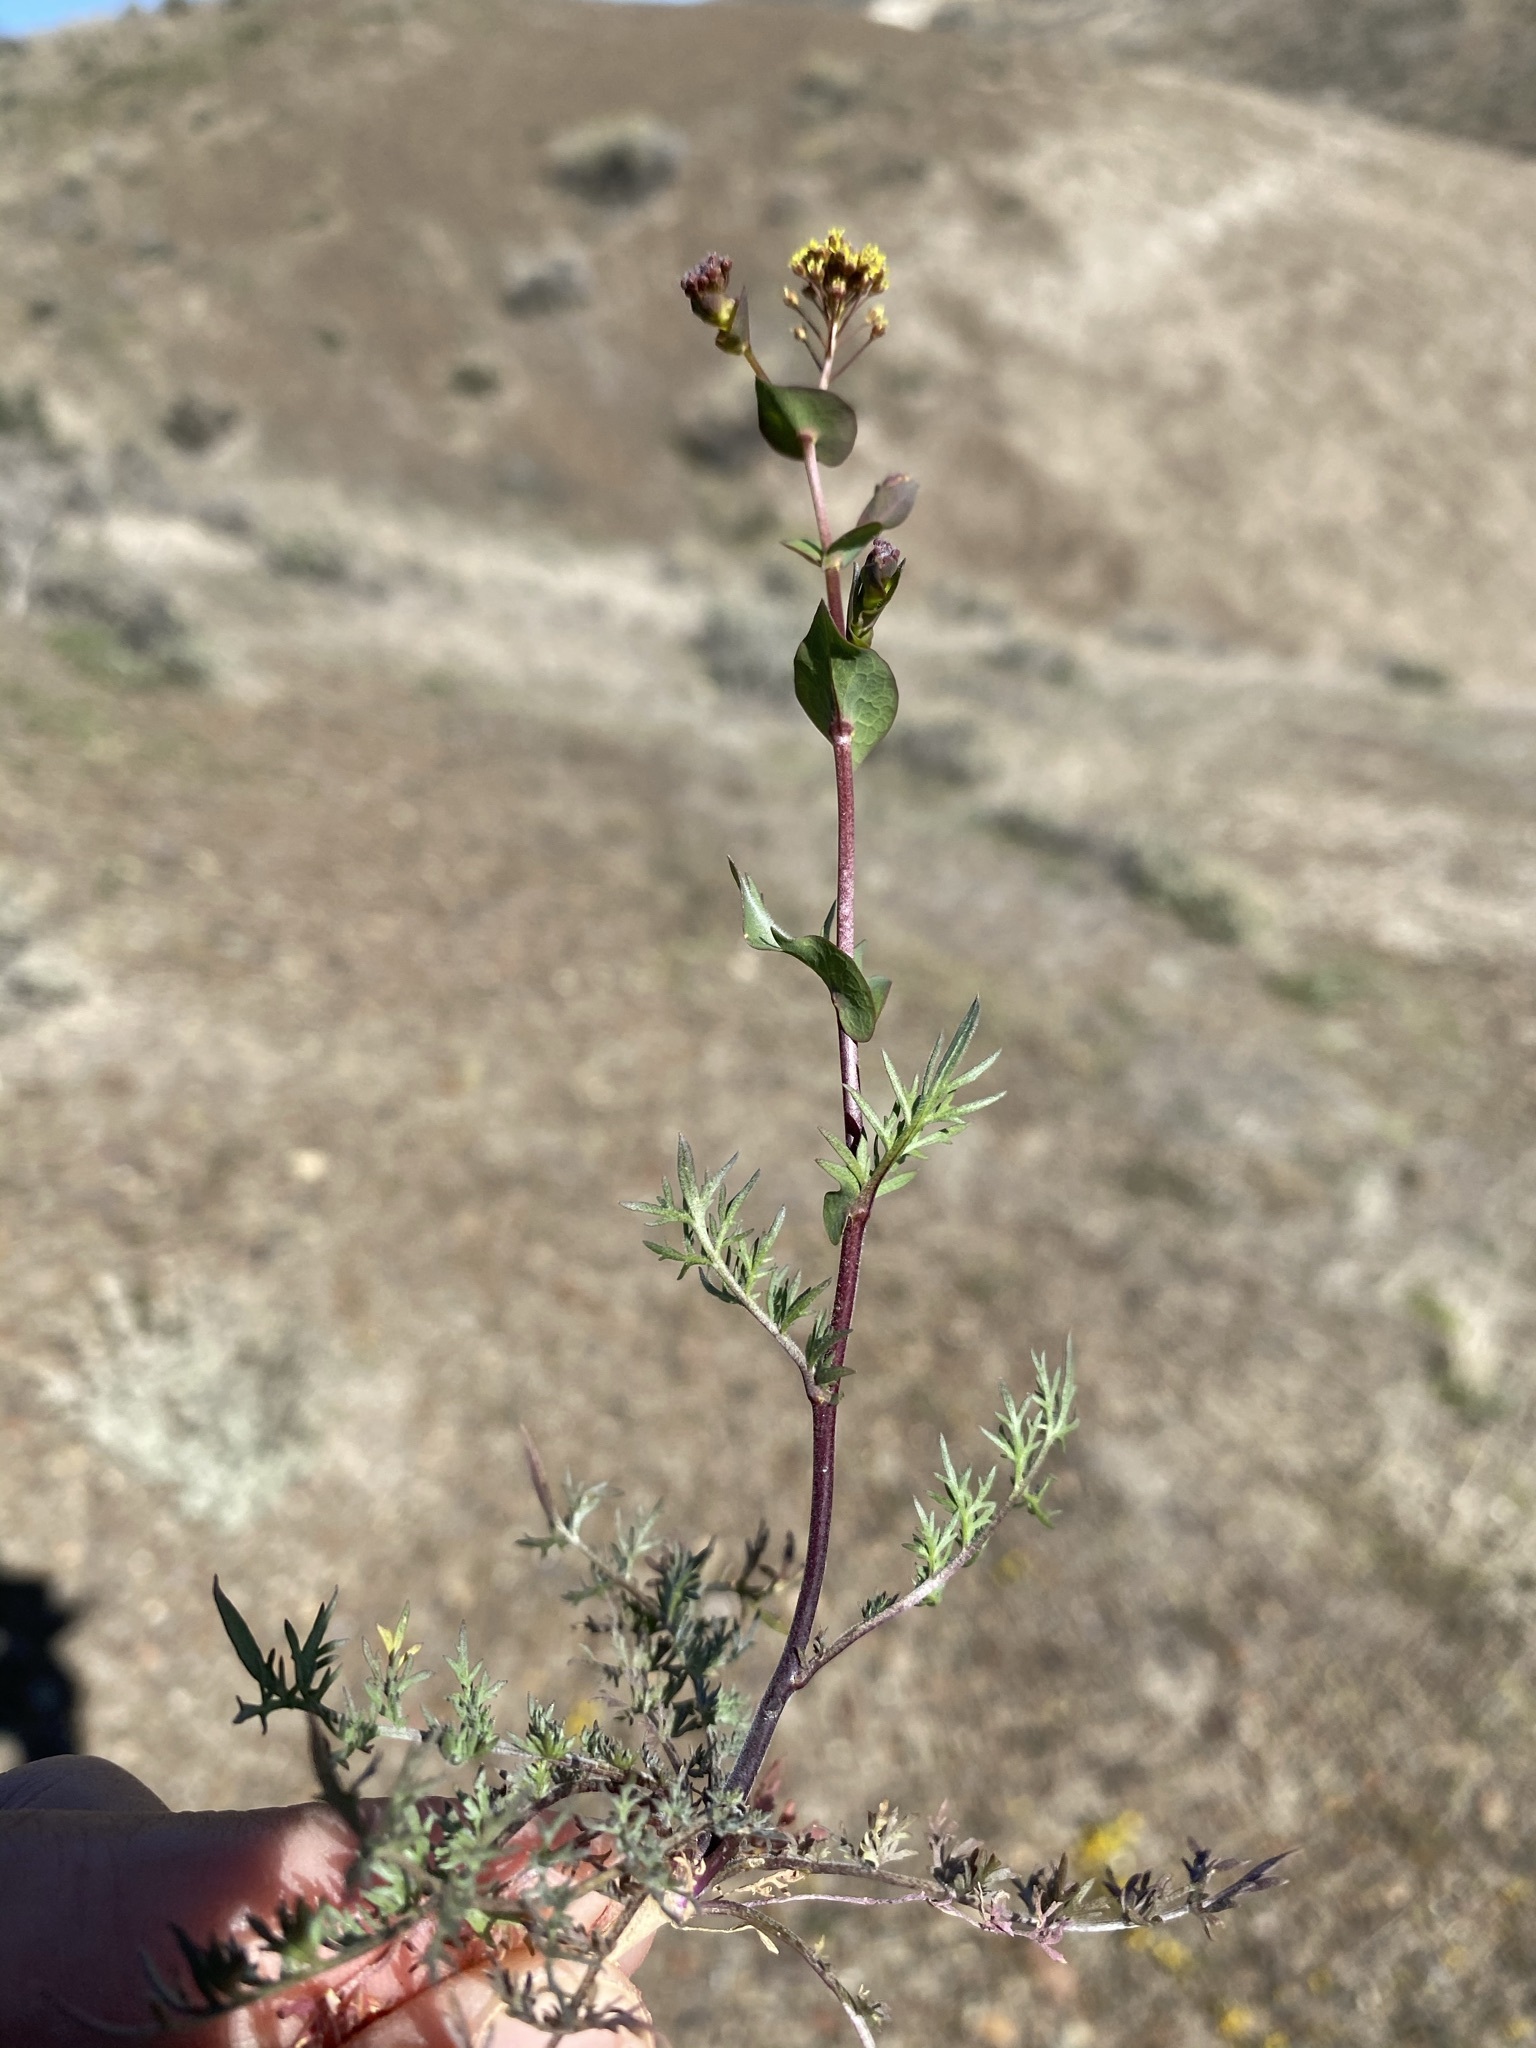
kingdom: Plantae
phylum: Tracheophyta
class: Magnoliopsida
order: Brassicales
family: Brassicaceae
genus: Lepidium
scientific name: Lepidium perfoliatum
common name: Perfoliate pepperwort
